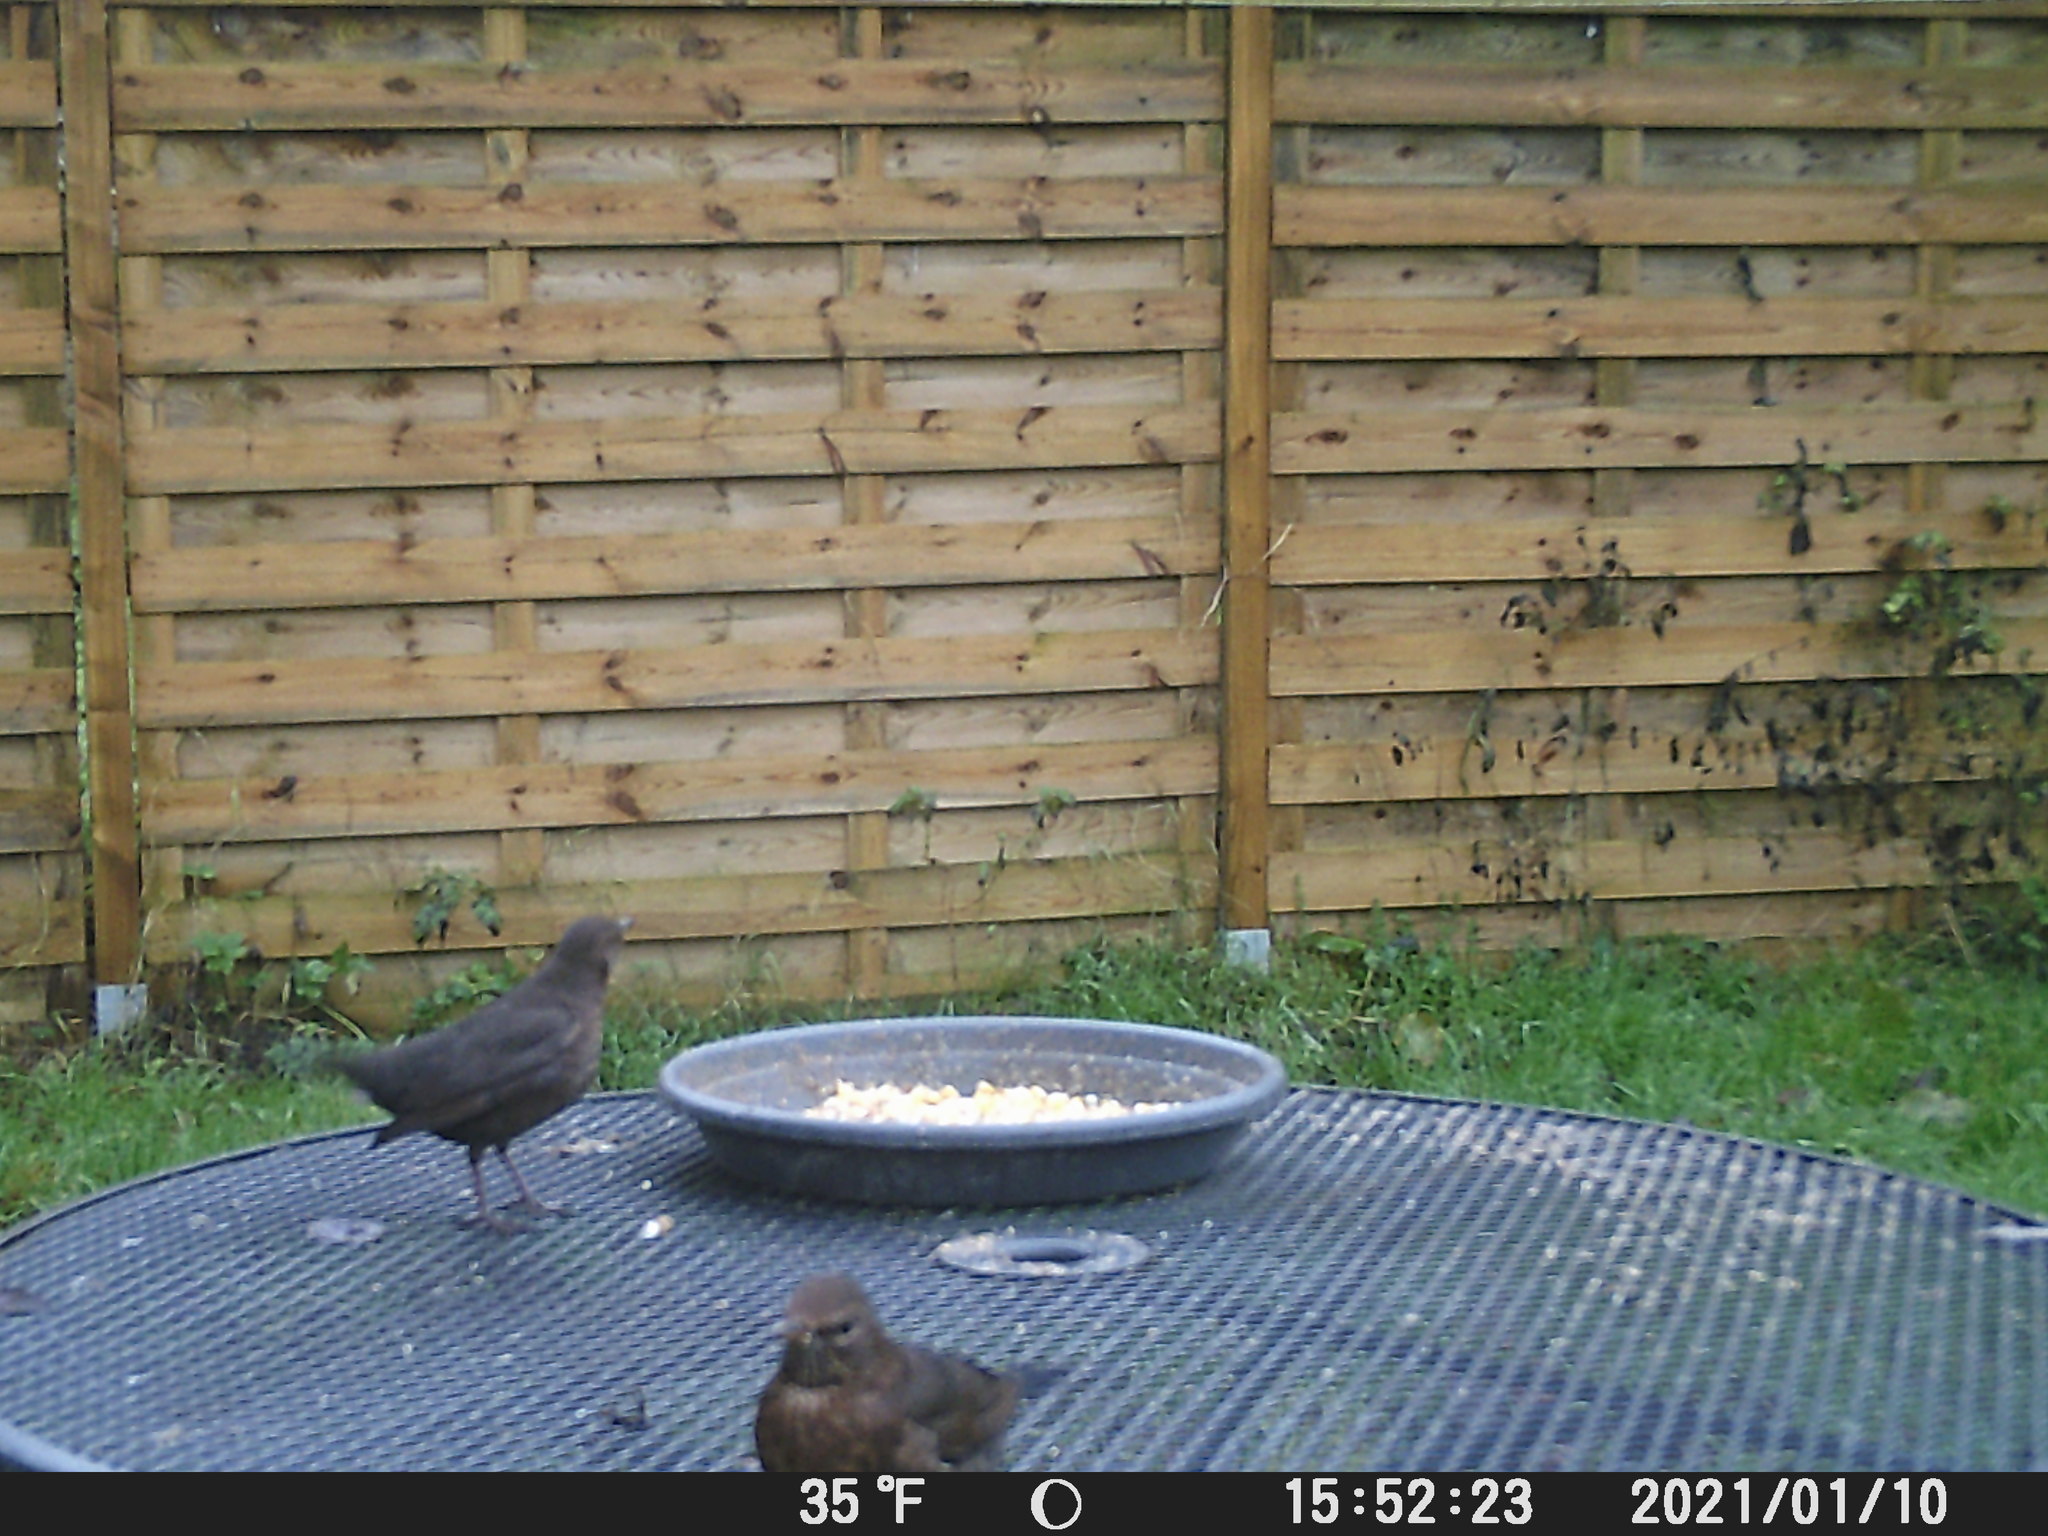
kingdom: Animalia
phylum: Chordata
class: Aves
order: Passeriformes
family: Turdidae
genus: Turdus
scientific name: Turdus merula
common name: Common blackbird
